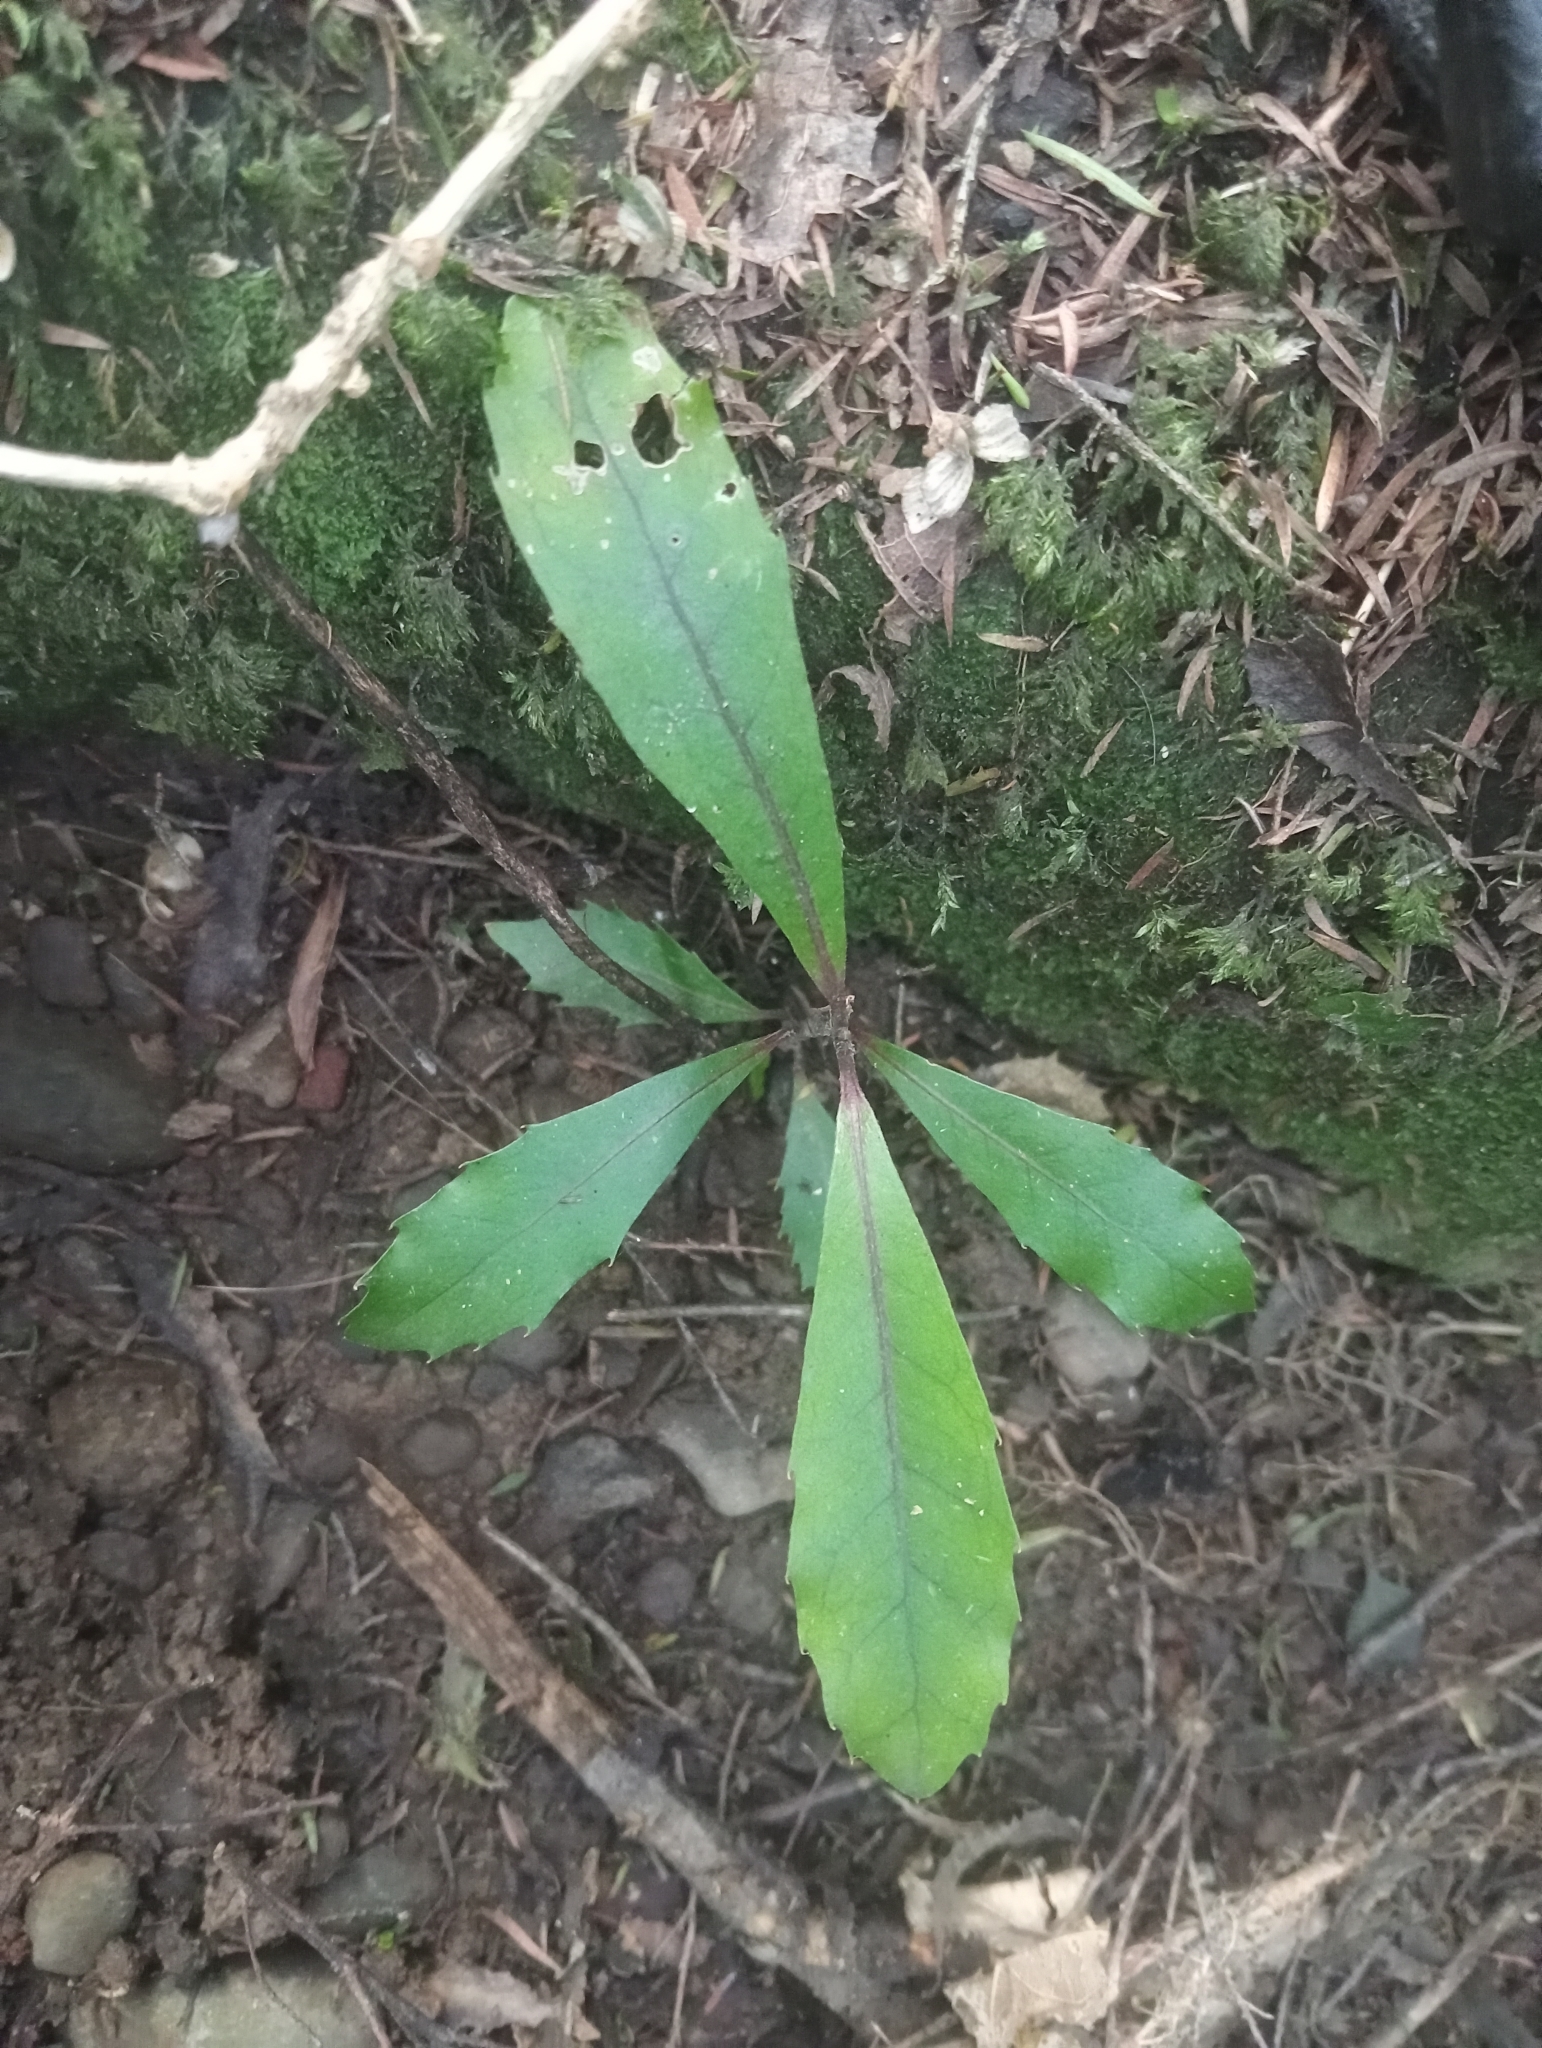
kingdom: Plantae
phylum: Tracheophyta
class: Magnoliopsida
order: Laurales
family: Monimiaceae
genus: Hedycarya
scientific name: Hedycarya arborea
